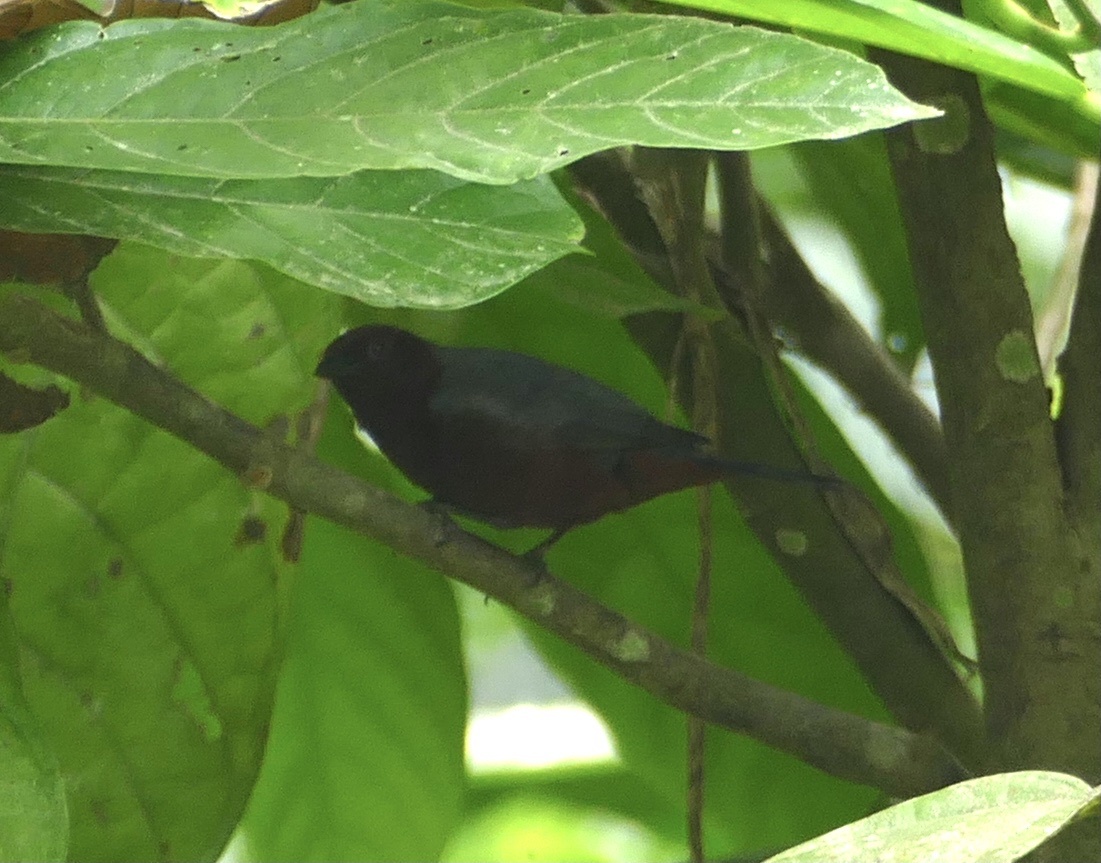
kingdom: Animalia
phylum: Chordata
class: Aves
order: Passeriformes
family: Estrildidae
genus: Nigrita
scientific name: Nigrita canicapillus
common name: Grey-headed nigrita
